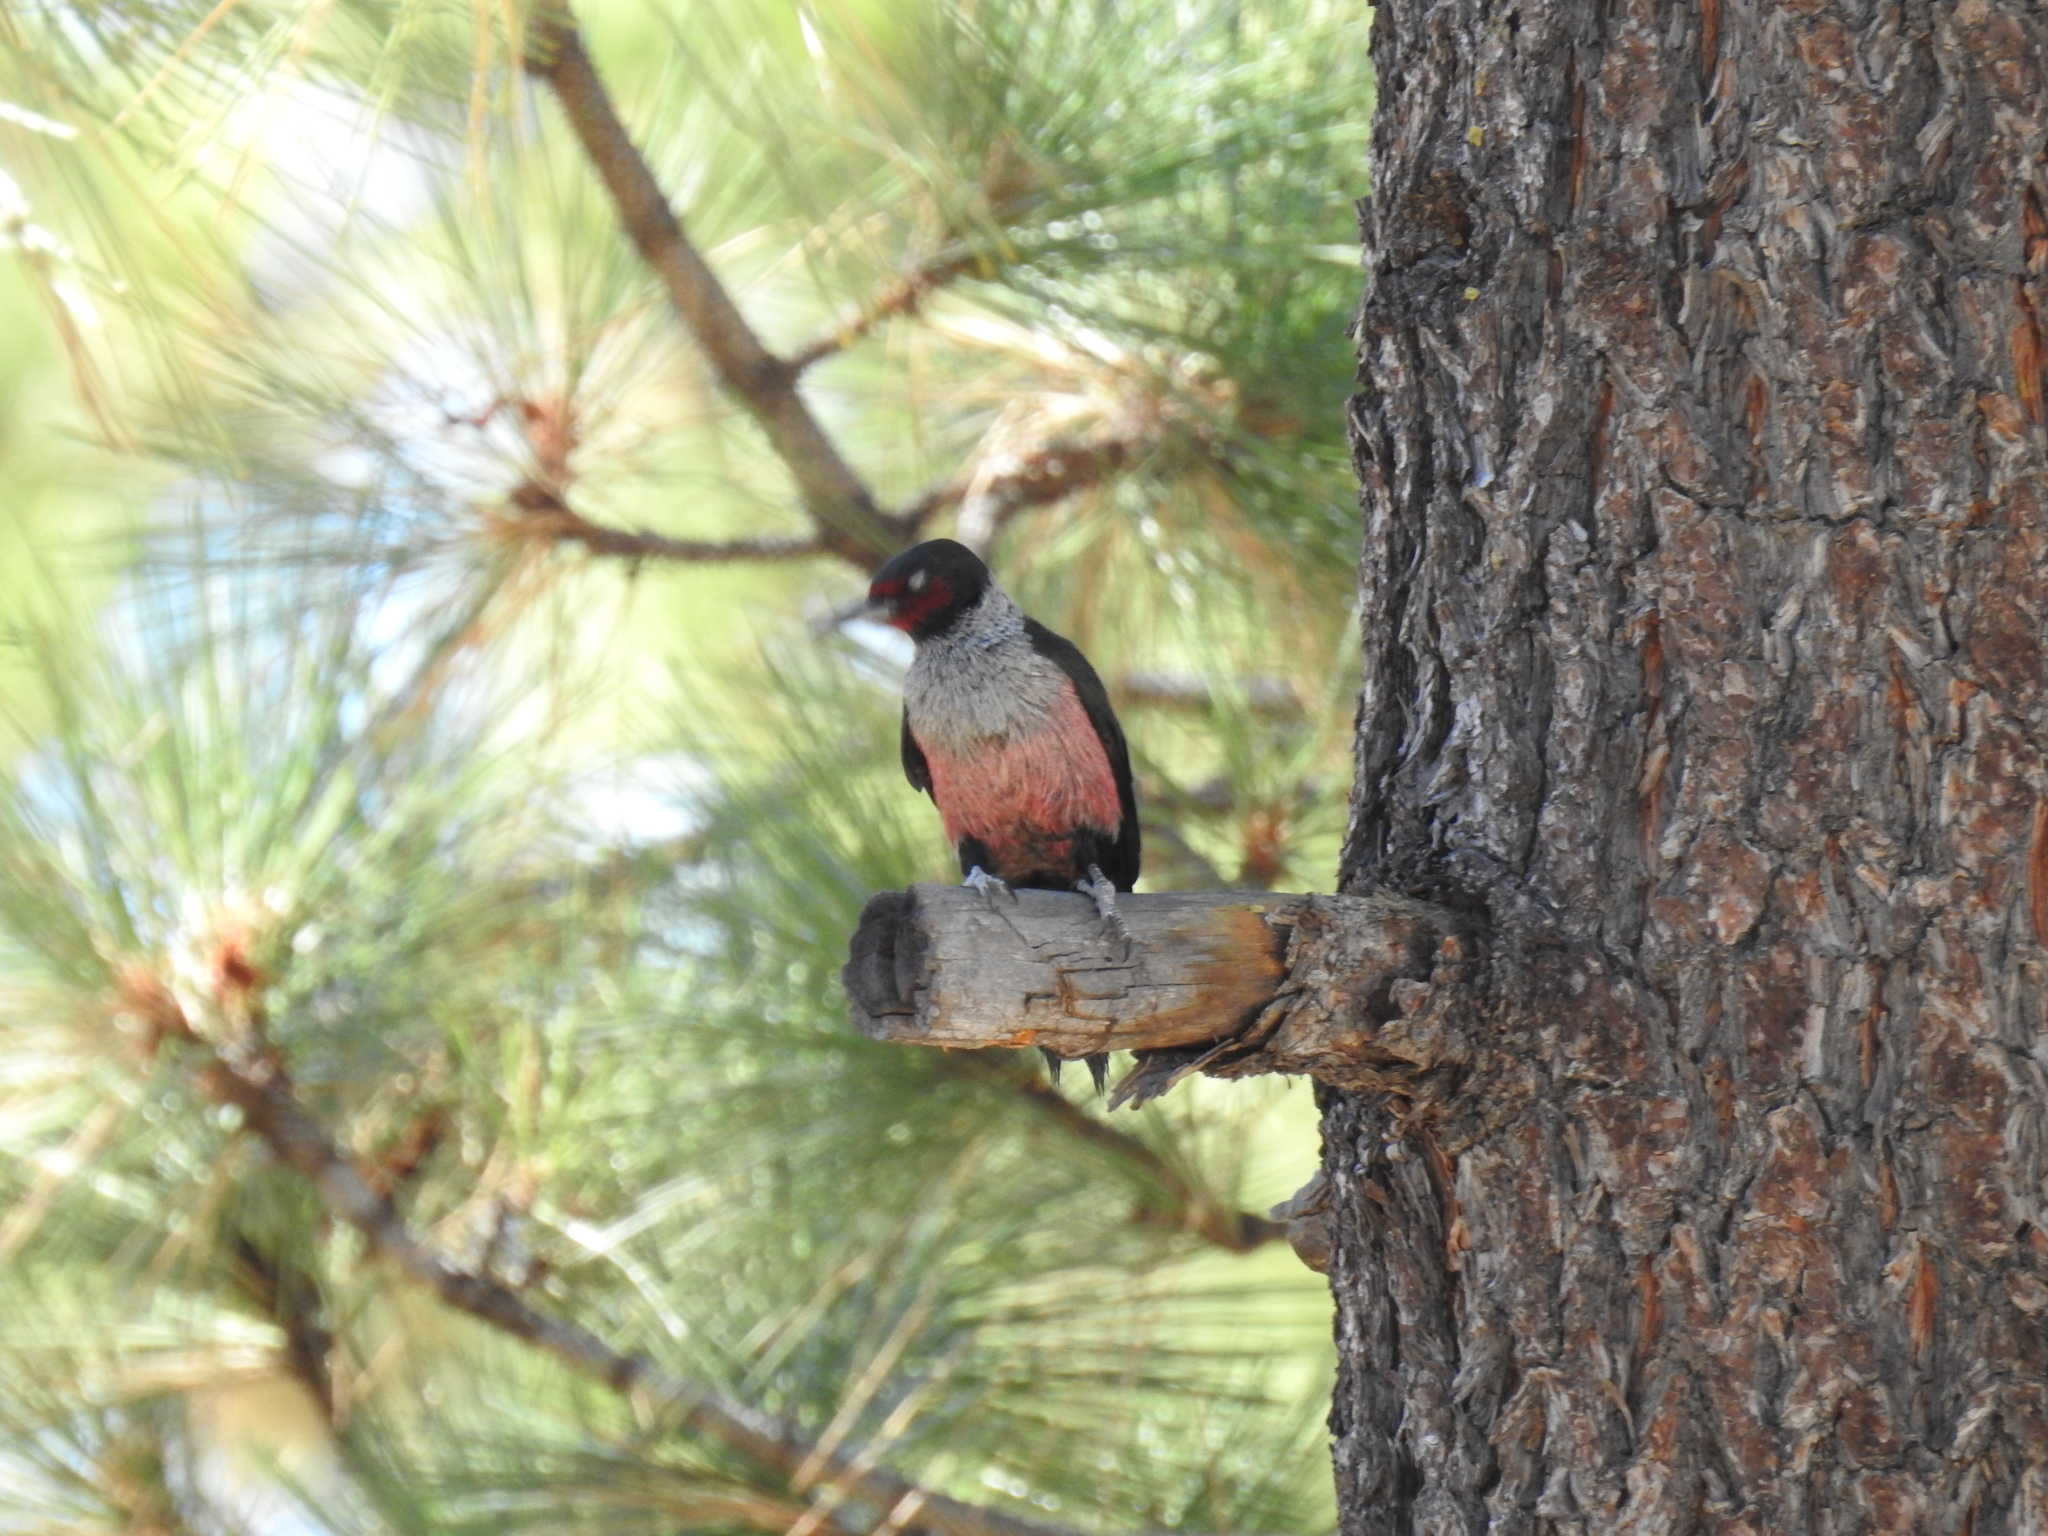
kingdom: Animalia
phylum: Chordata
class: Aves
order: Piciformes
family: Picidae
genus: Melanerpes
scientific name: Melanerpes lewis
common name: Lewis's woodpecker
